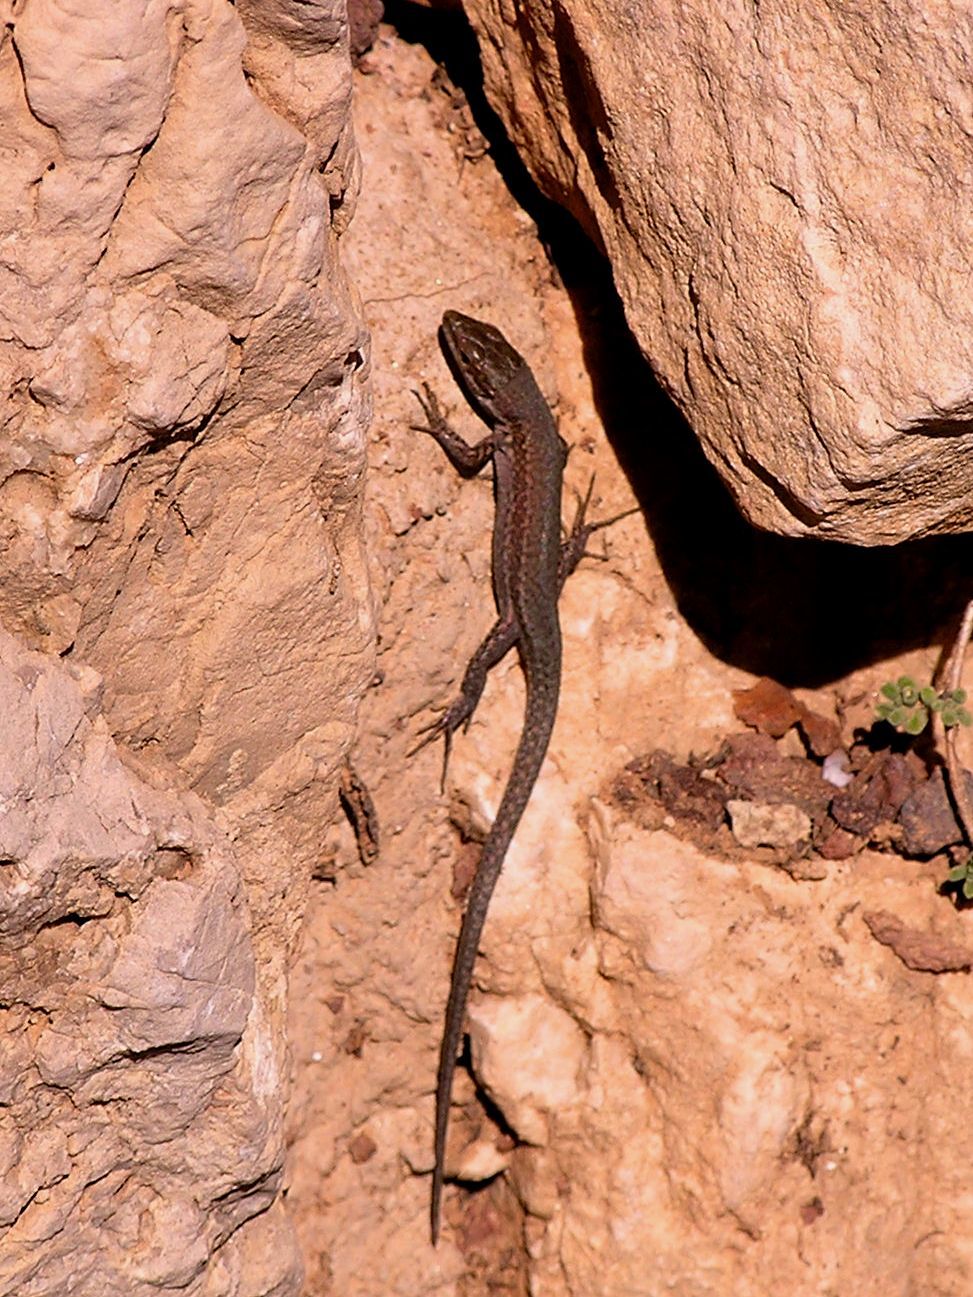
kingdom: Animalia
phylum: Chordata
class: Squamata
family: Lacertidae
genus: Podarcis
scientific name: Podarcis muralis
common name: Common wall lizard
